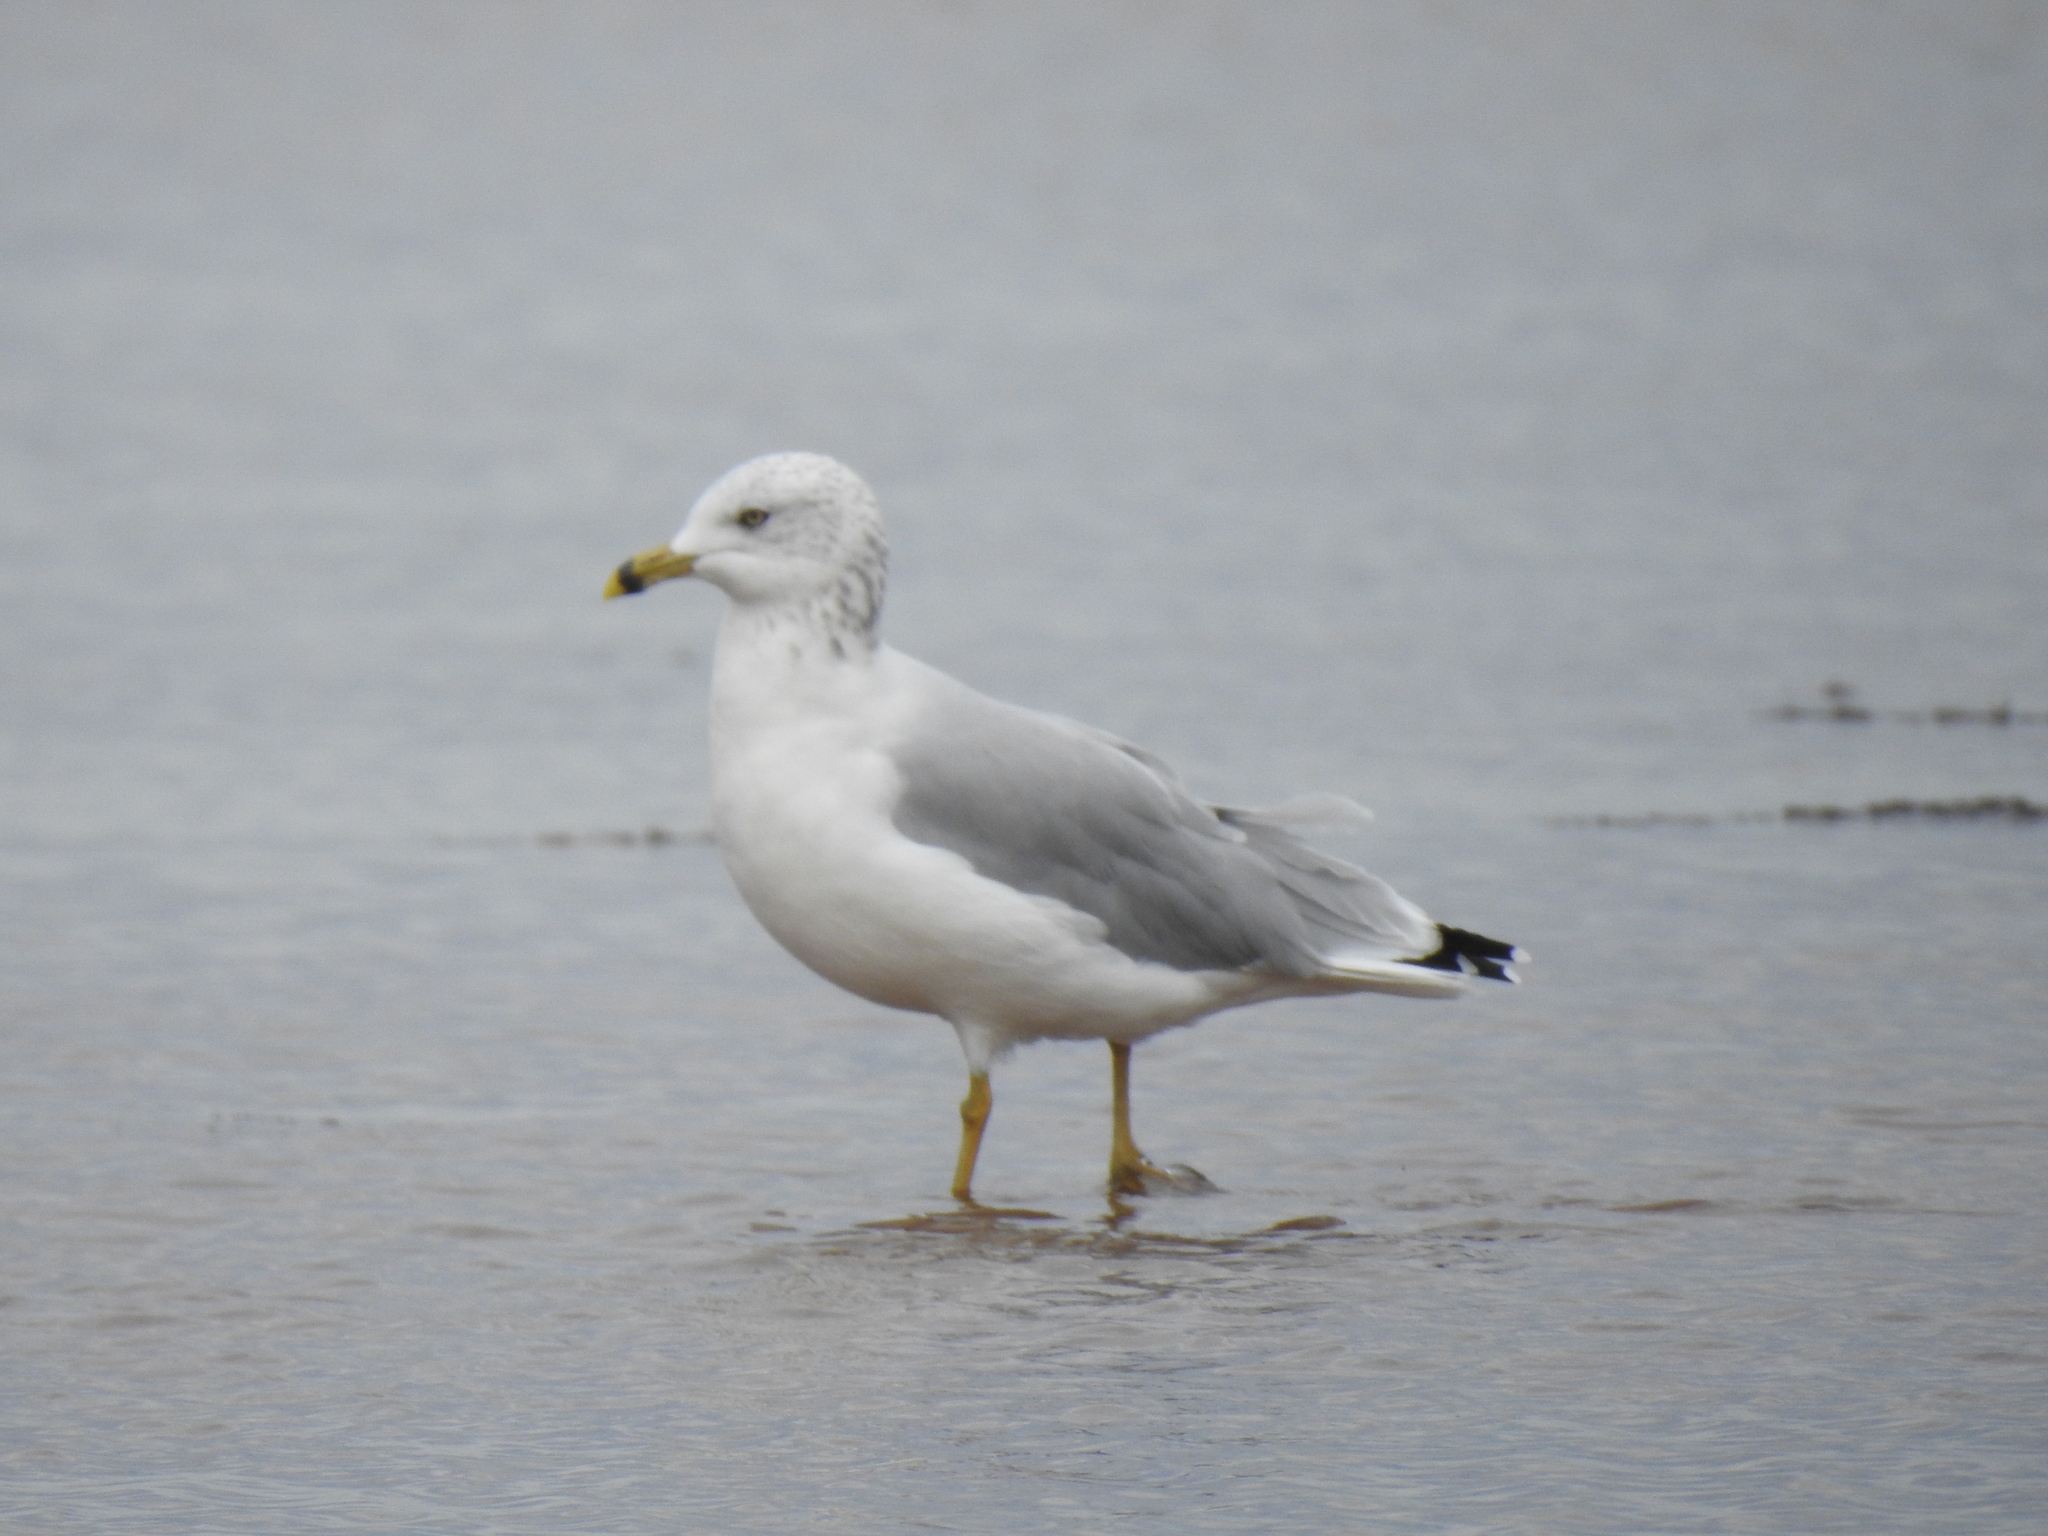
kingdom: Animalia
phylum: Chordata
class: Aves
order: Charadriiformes
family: Laridae
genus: Larus
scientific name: Larus delawarensis
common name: Ring-billed gull
